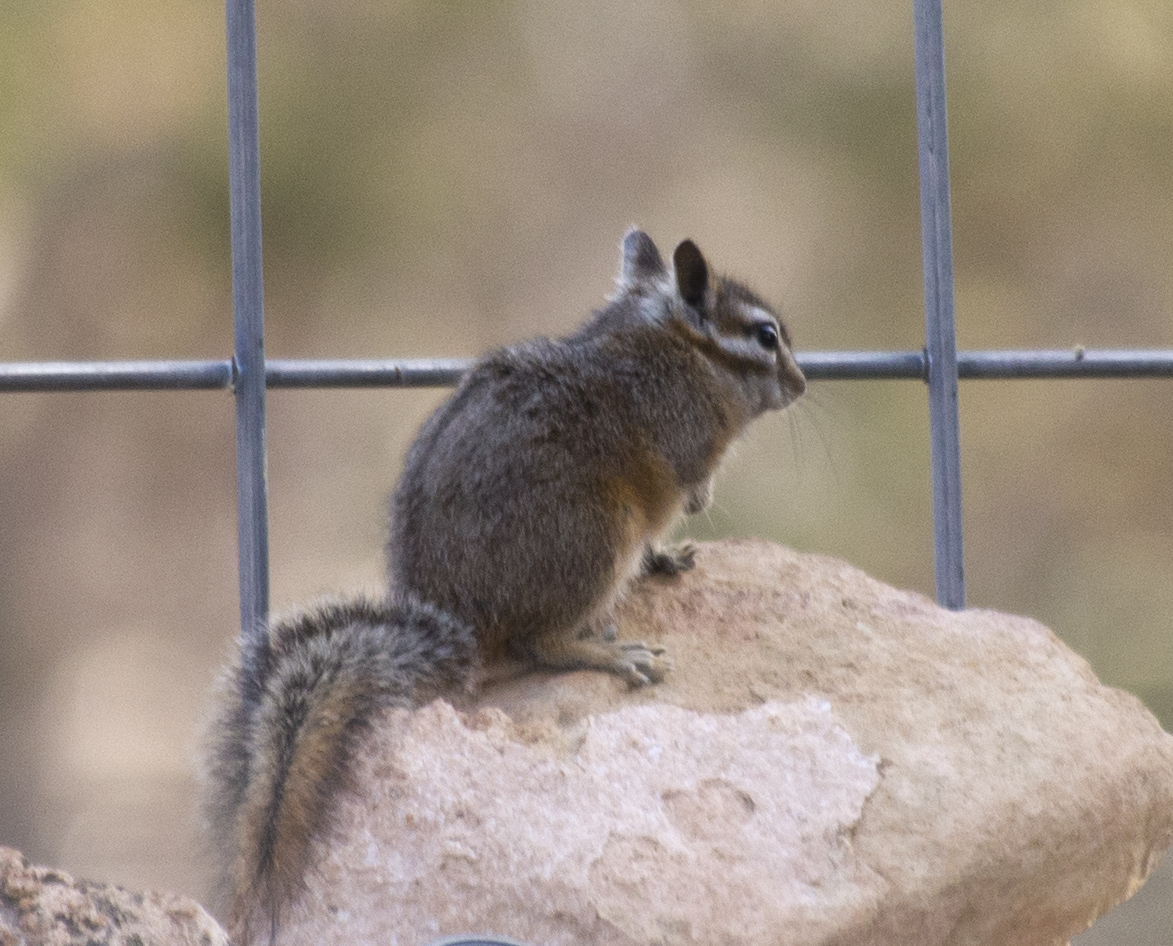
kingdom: Animalia
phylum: Chordata
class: Mammalia
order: Rodentia
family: Sciuridae
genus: Tamias
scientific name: Tamias dorsalis
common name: Cliff chipmunk
